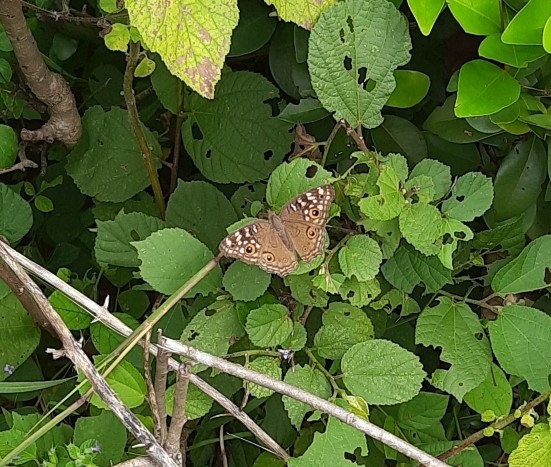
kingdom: Animalia
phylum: Arthropoda
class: Insecta
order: Lepidoptera
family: Nymphalidae
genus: Junonia
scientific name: Junonia lemonias
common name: Lemon pansy
